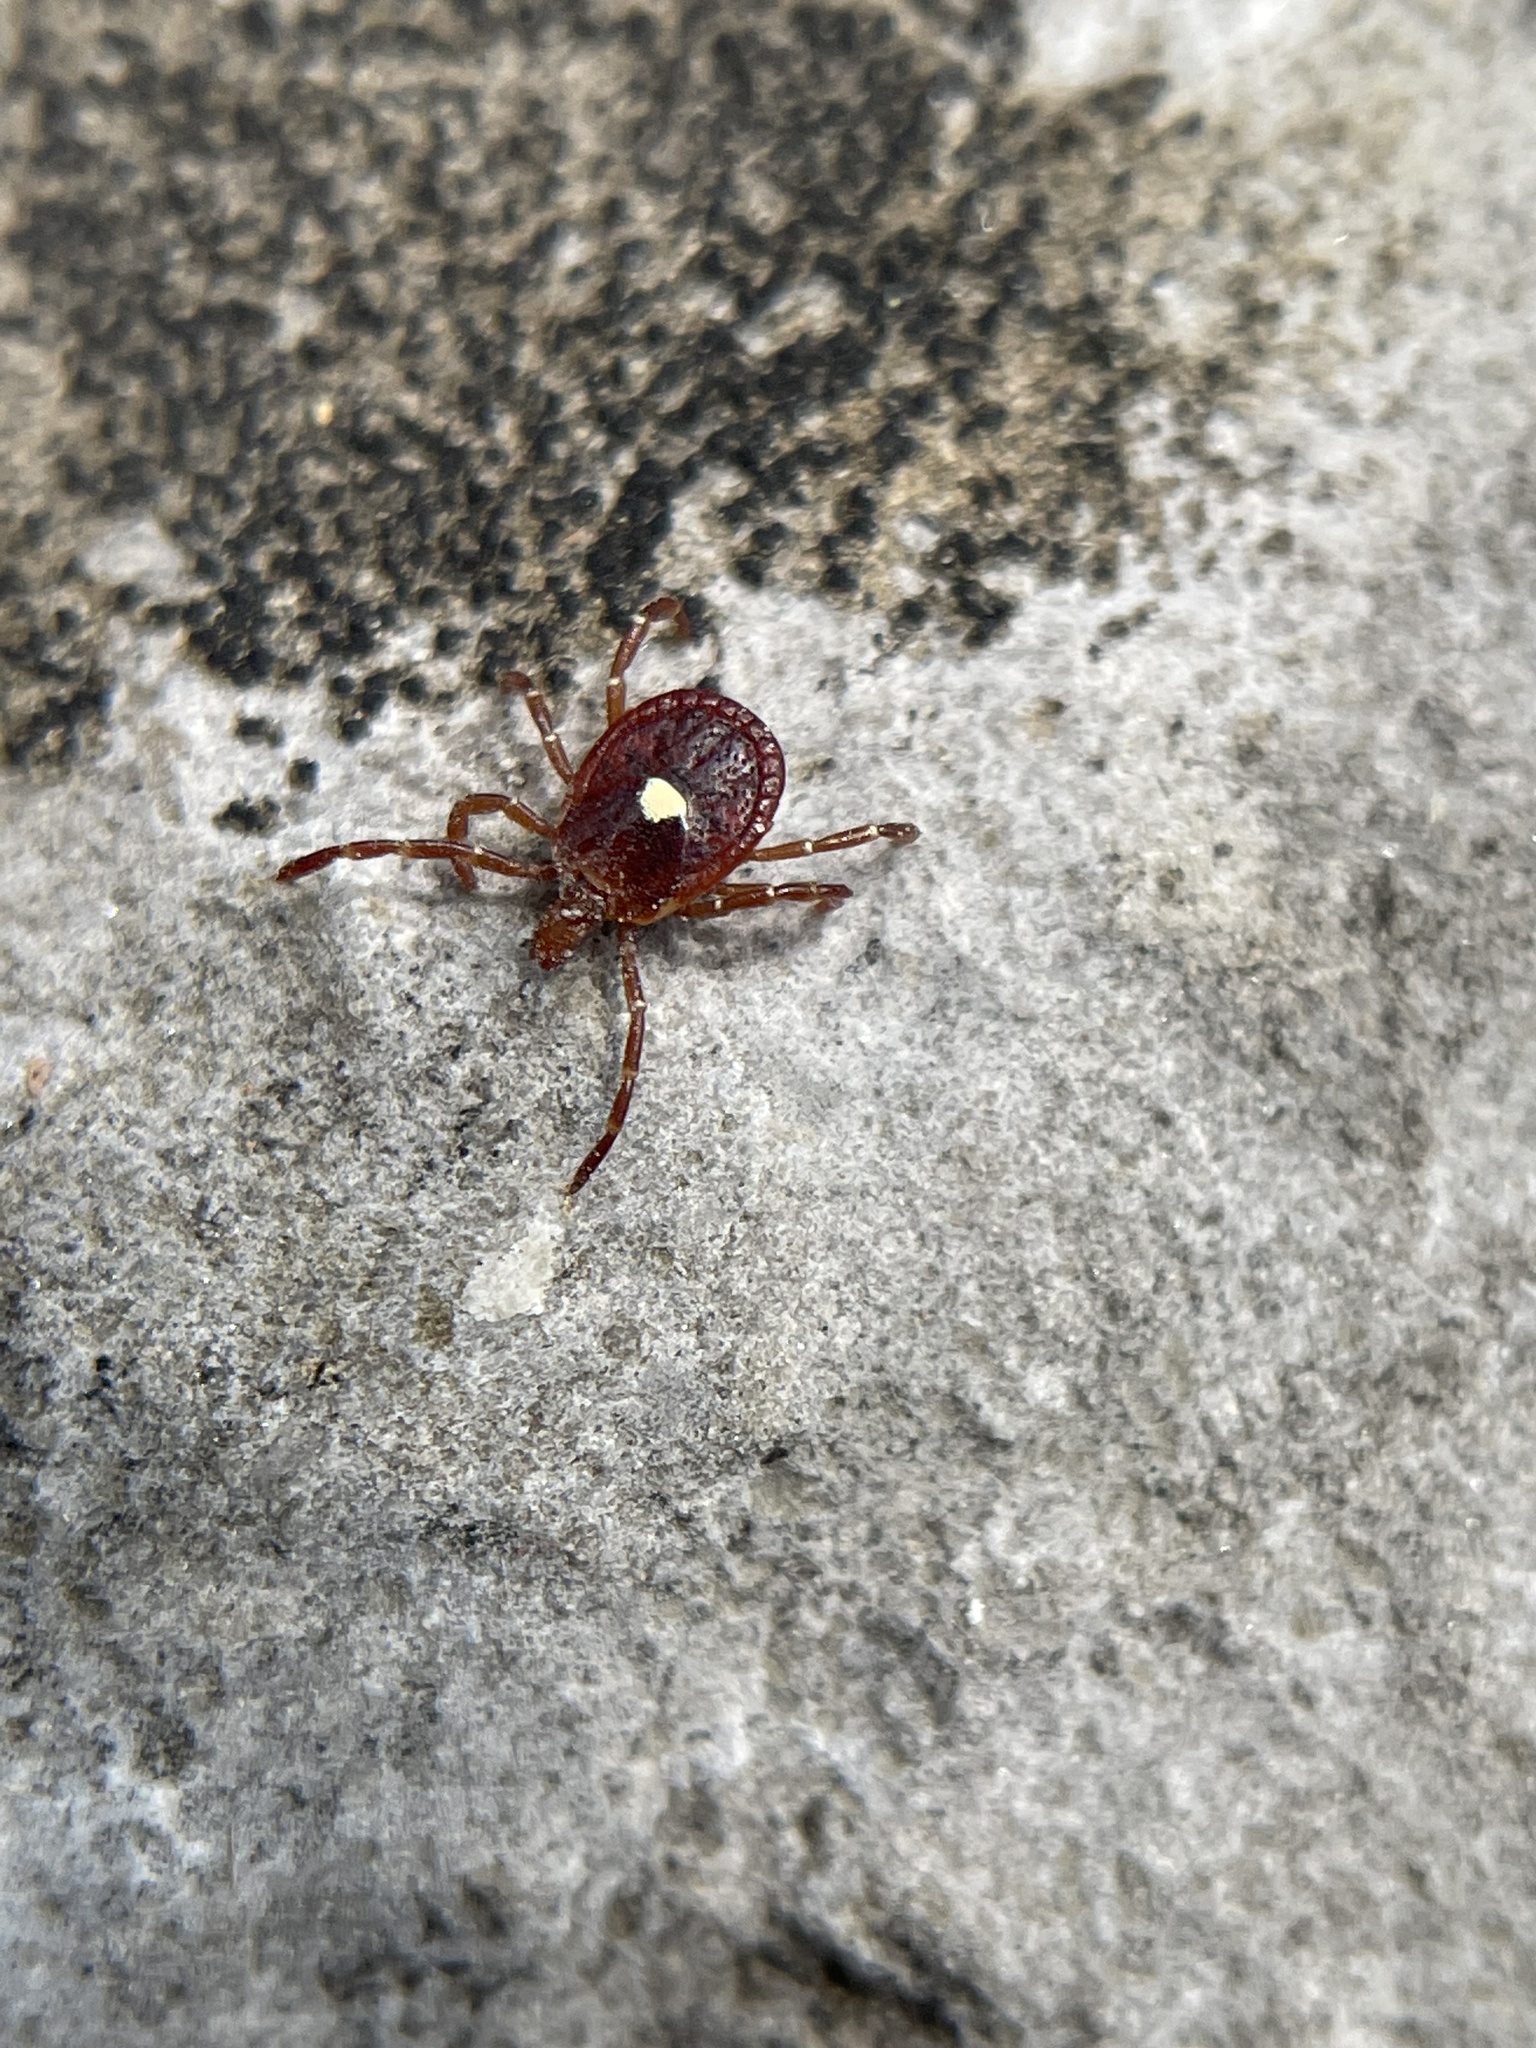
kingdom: Animalia
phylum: Arthropoda
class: Arachnida
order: Ixodida
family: Ixodidae
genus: Amblyomma
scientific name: Amblyomma americanum
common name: Lone star tick
